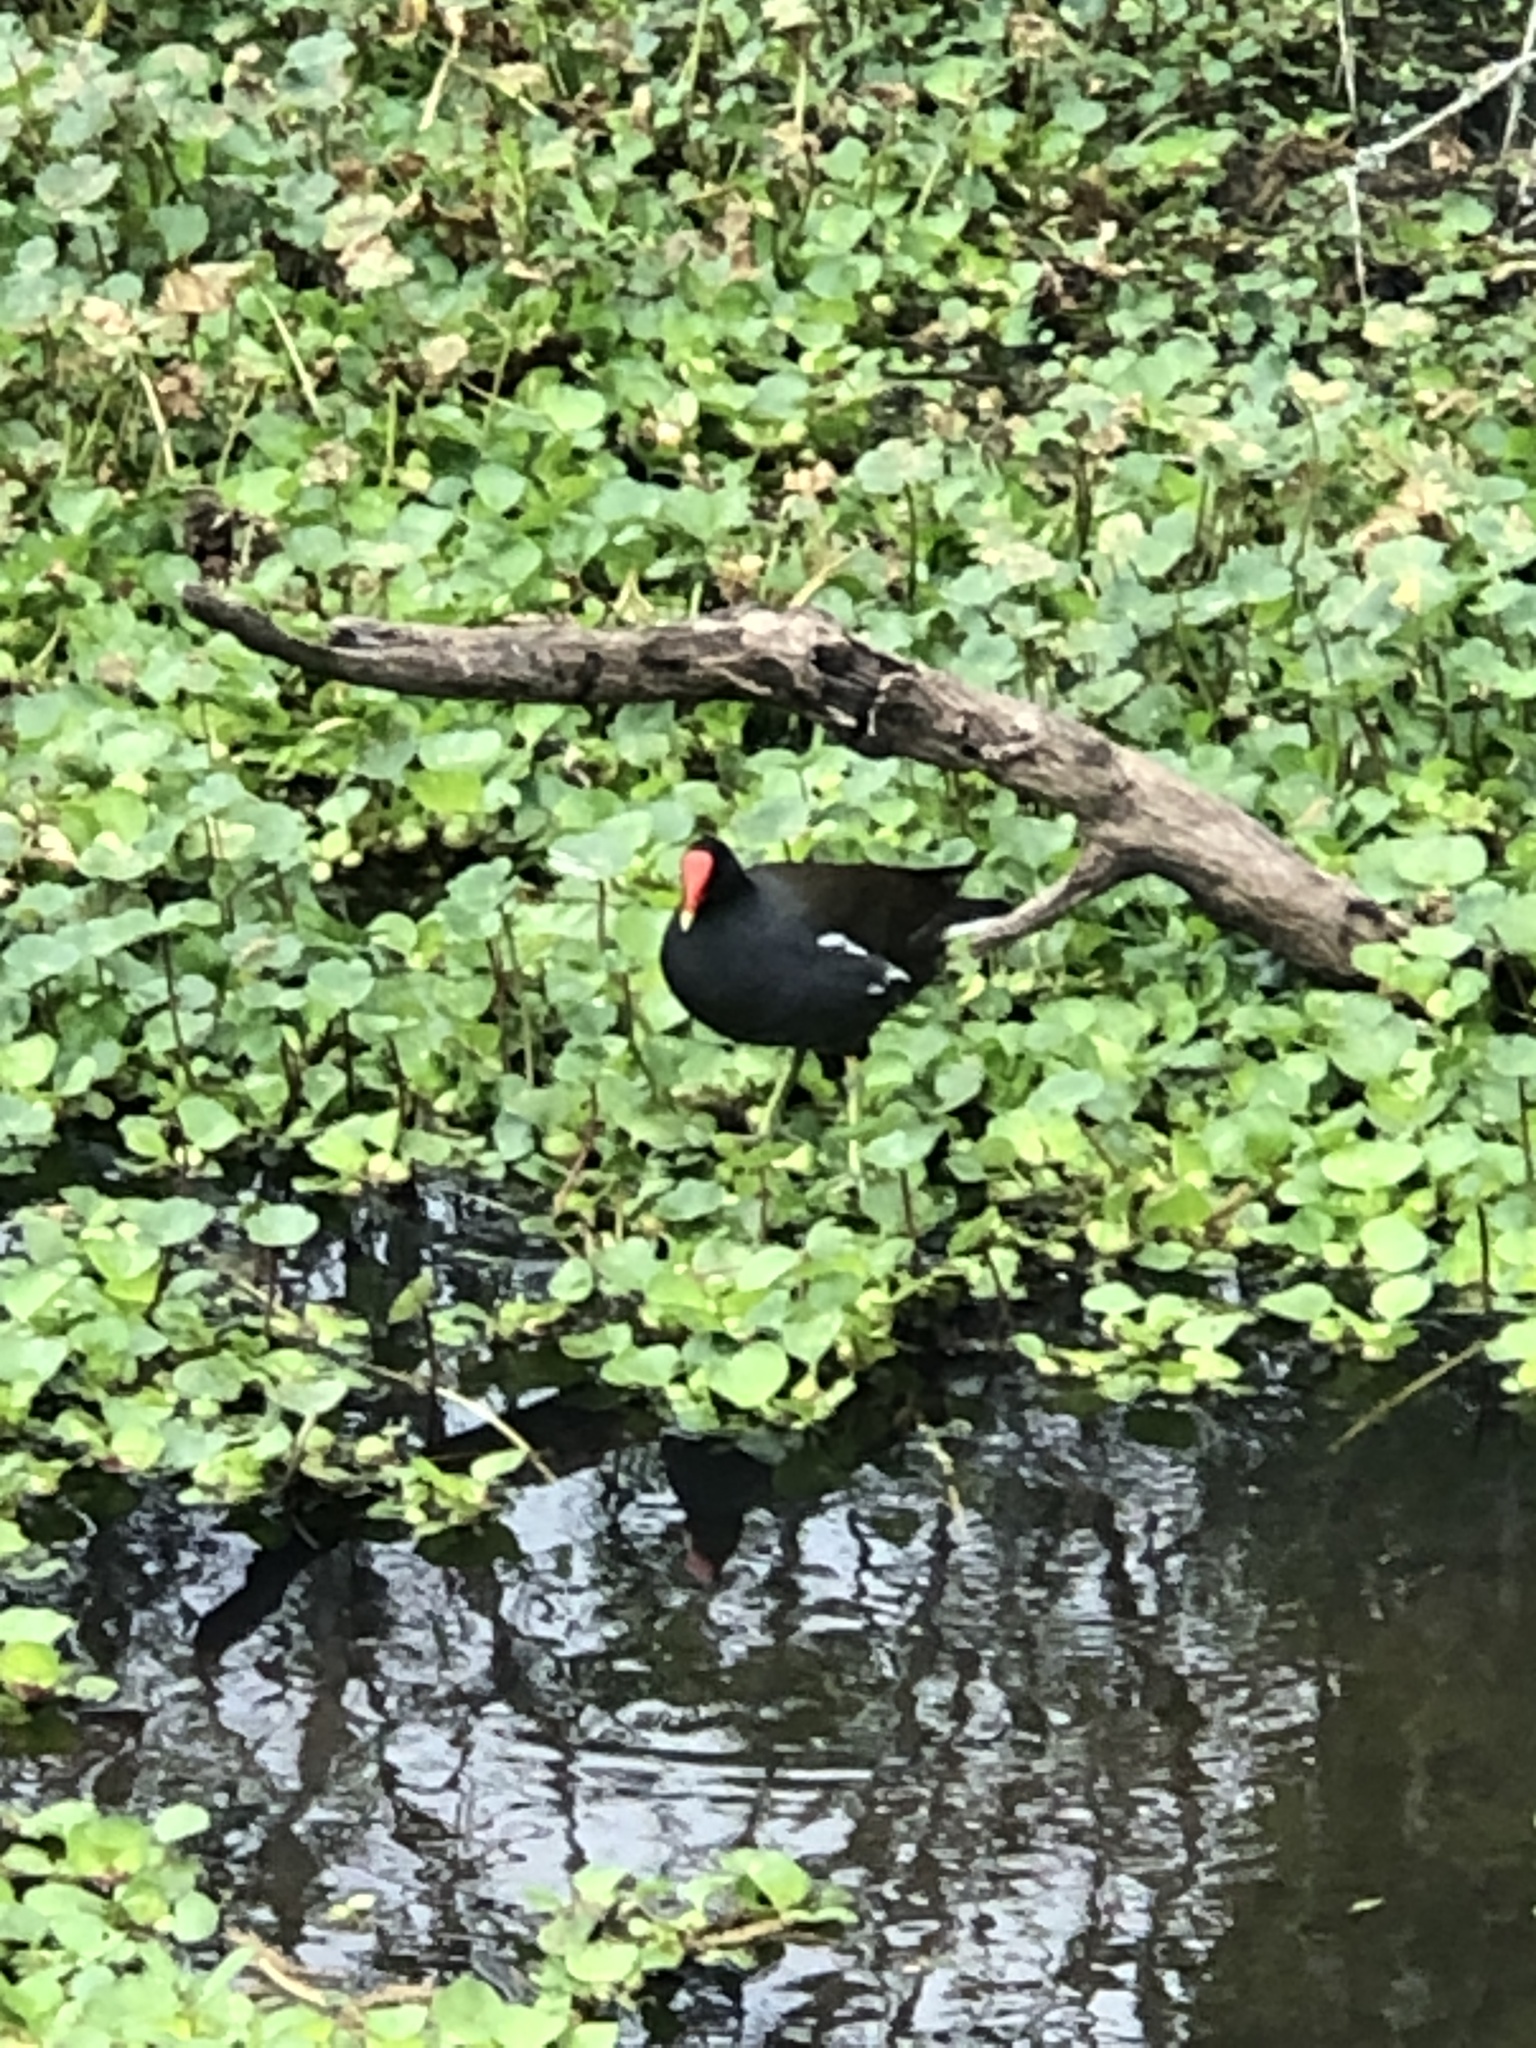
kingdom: Animalia
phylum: Chordata
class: Aves
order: Gruiformes
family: Rallidae
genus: Gallinula
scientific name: Gallinula chloropus
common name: Common moorhen
